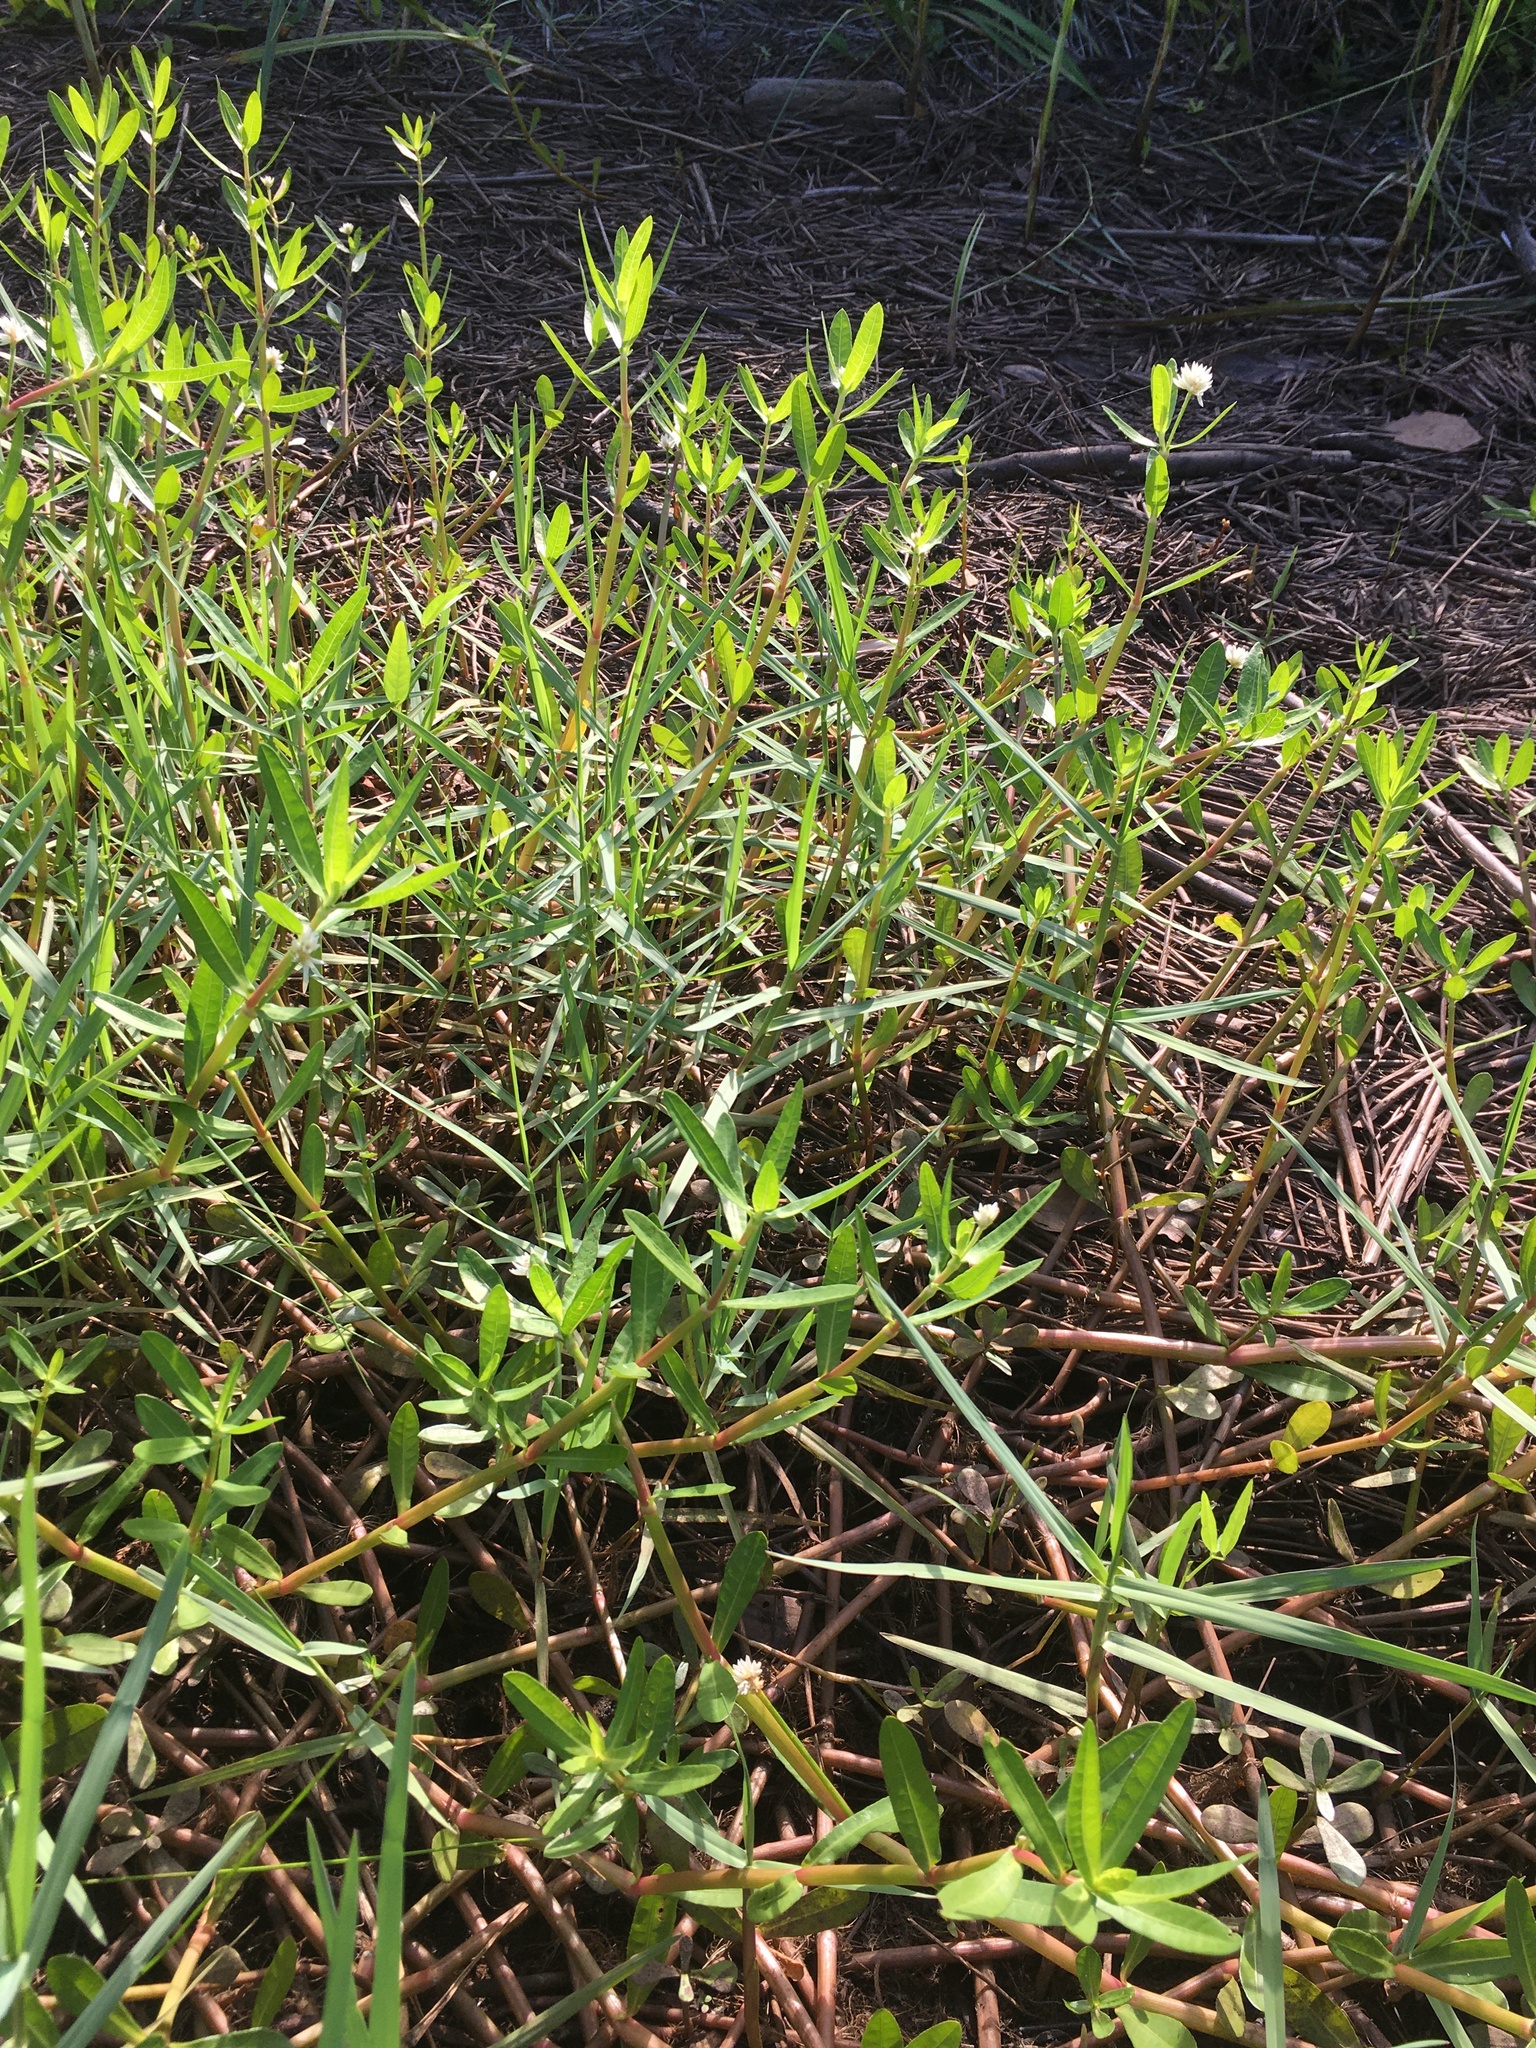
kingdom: Plantae
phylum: Tracheophyta
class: Magnoliopsida
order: Caryophyllales
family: Amaranthaceae
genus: Alternanthera
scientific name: Alternanthera philoxeroides
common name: Alligatorweed
